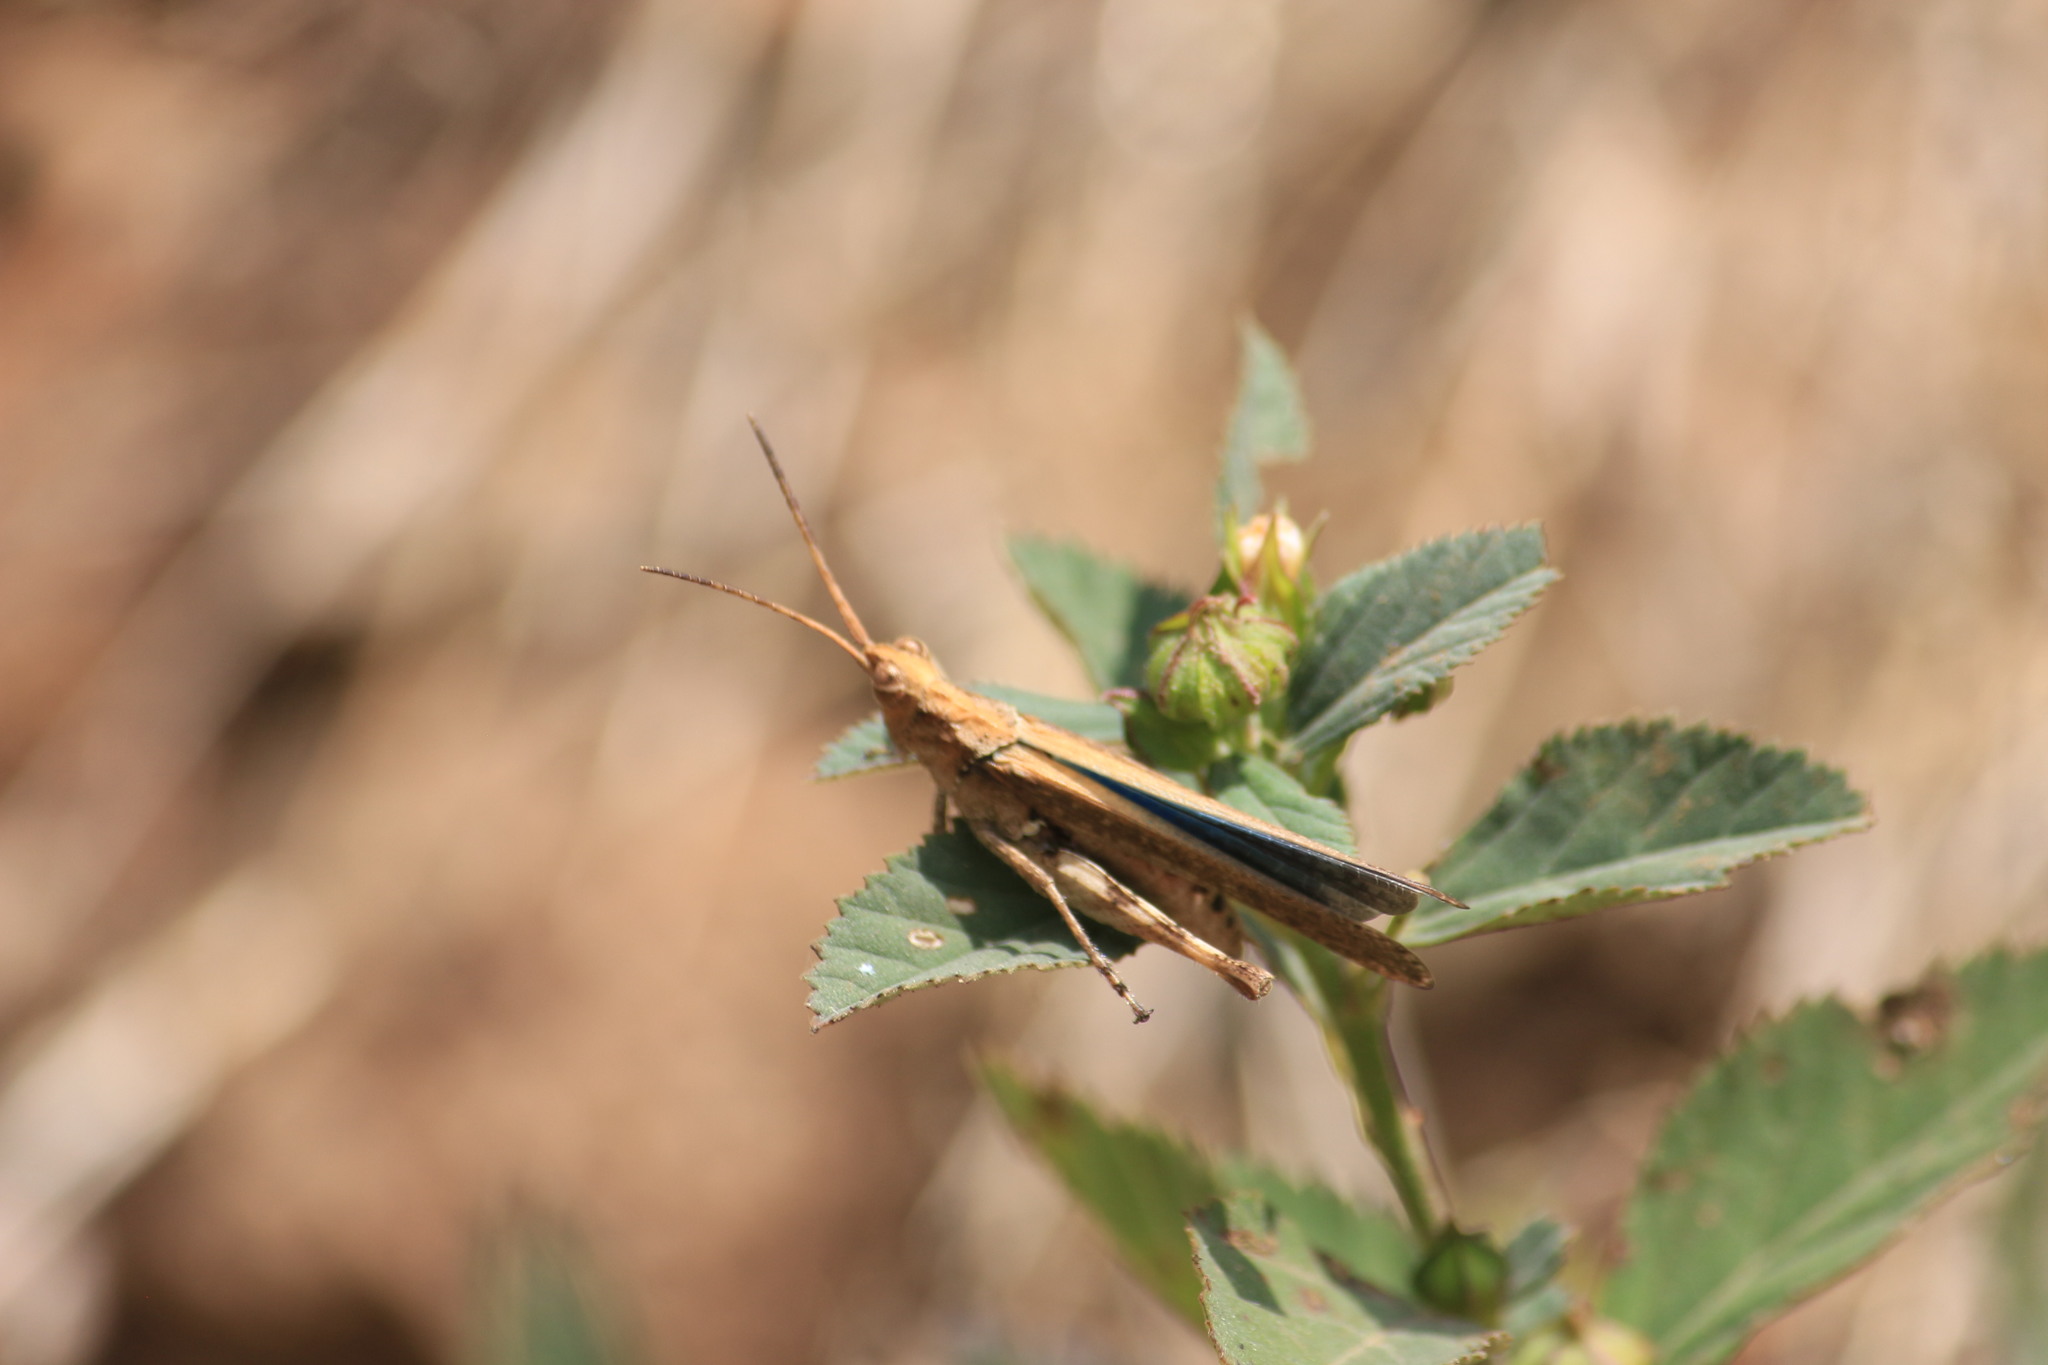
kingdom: Animalia
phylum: Arthropoda
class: Insecta
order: Orthoptera
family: Acrididae
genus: Machaerocera
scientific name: Machaerocera mexicana
